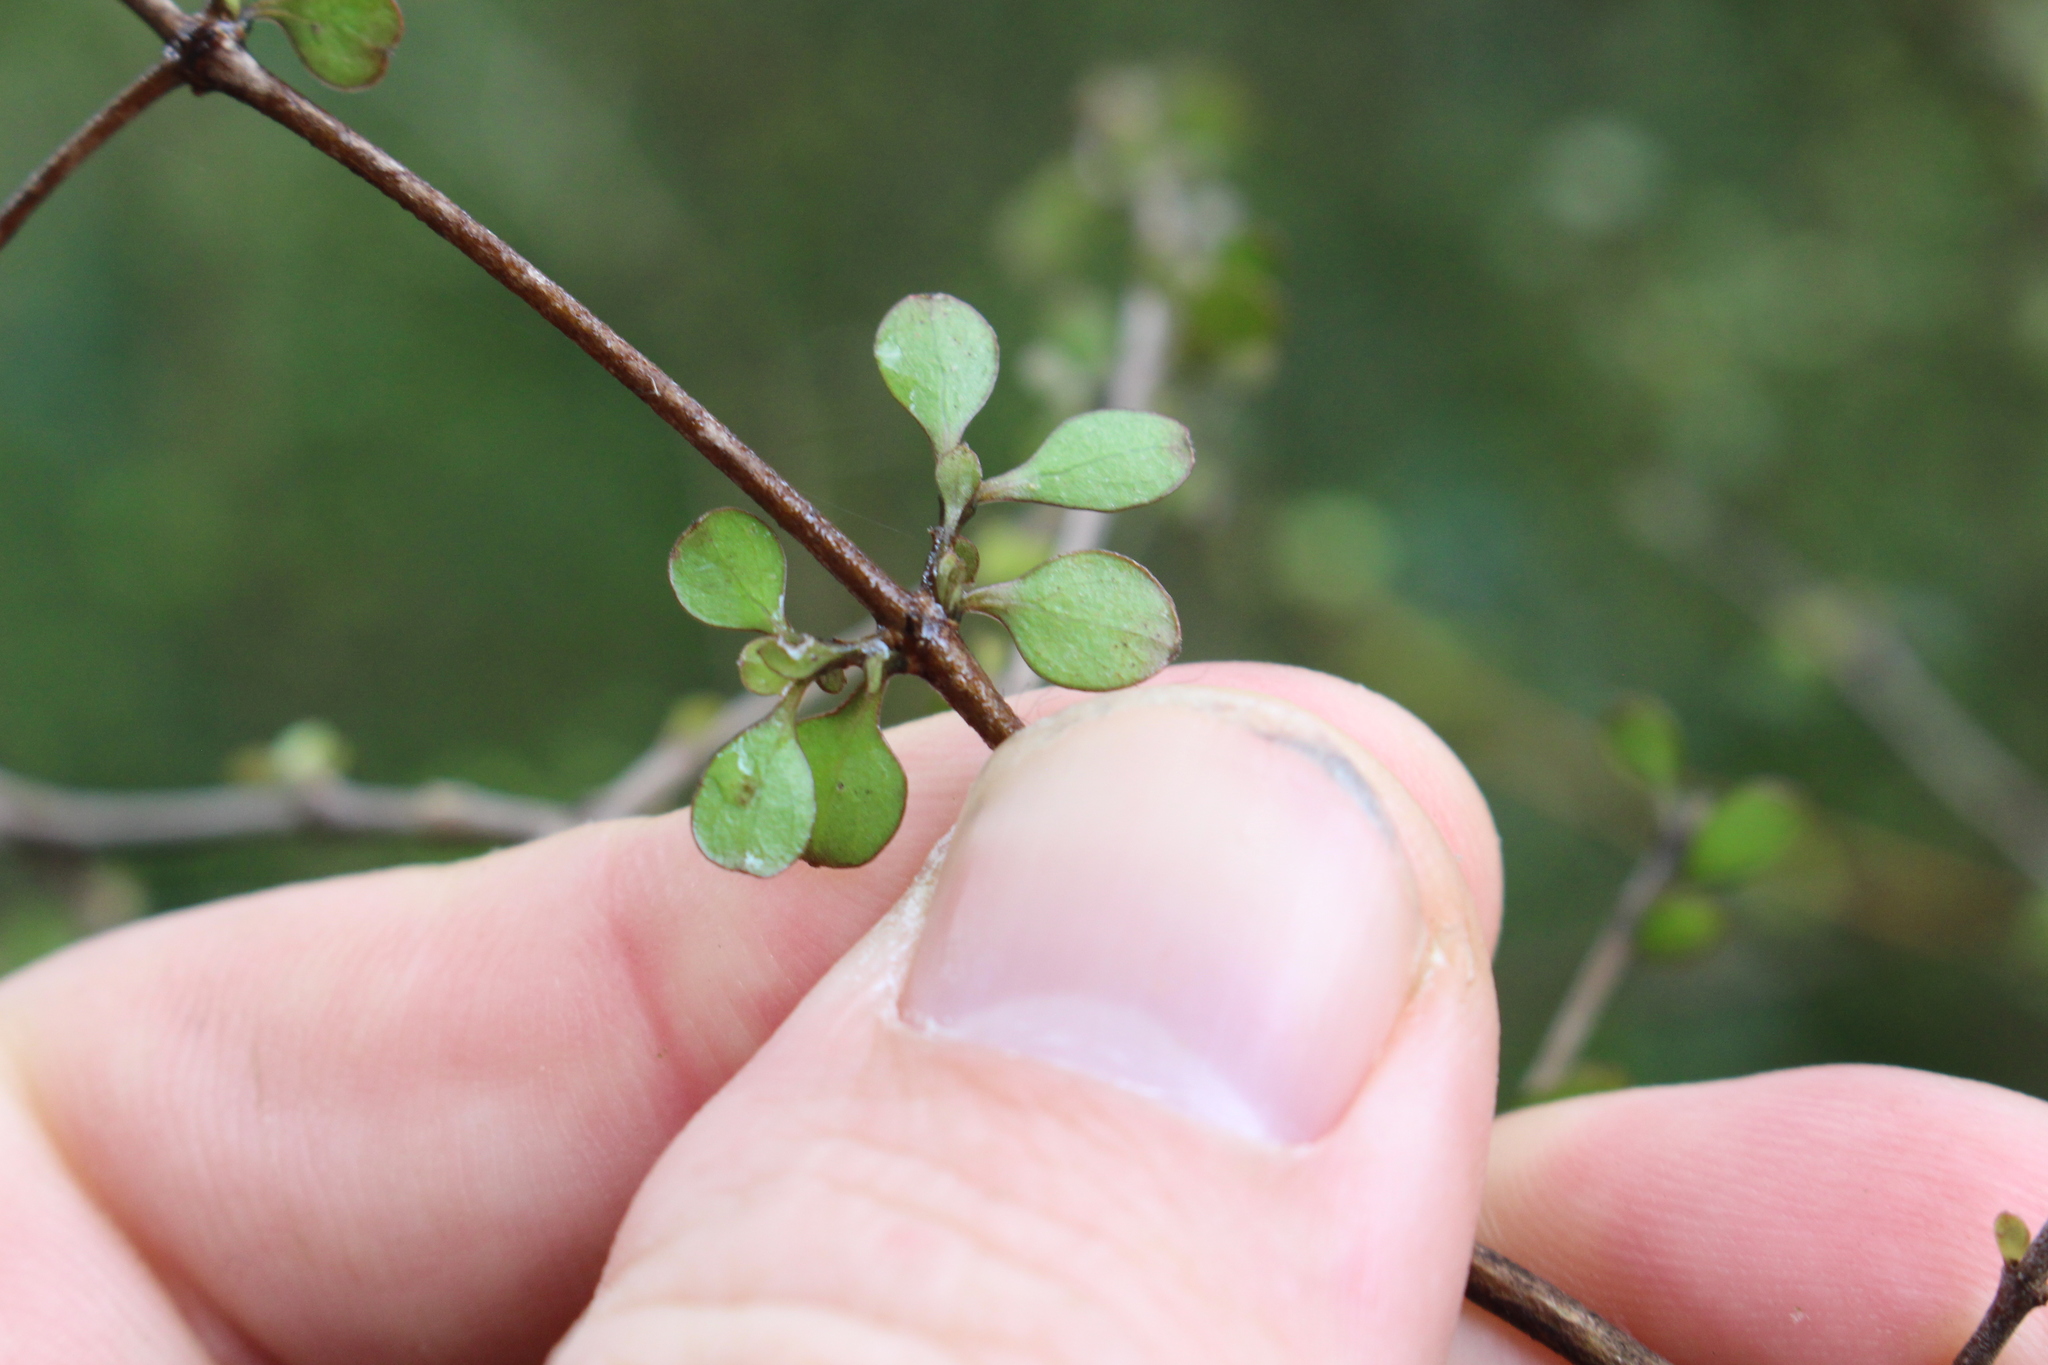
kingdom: Plantae
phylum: Tracheophyta
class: Magnoliopsida
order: Gentianales
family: Rubiaceae
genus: Coprosma
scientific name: Coprosma virescens
